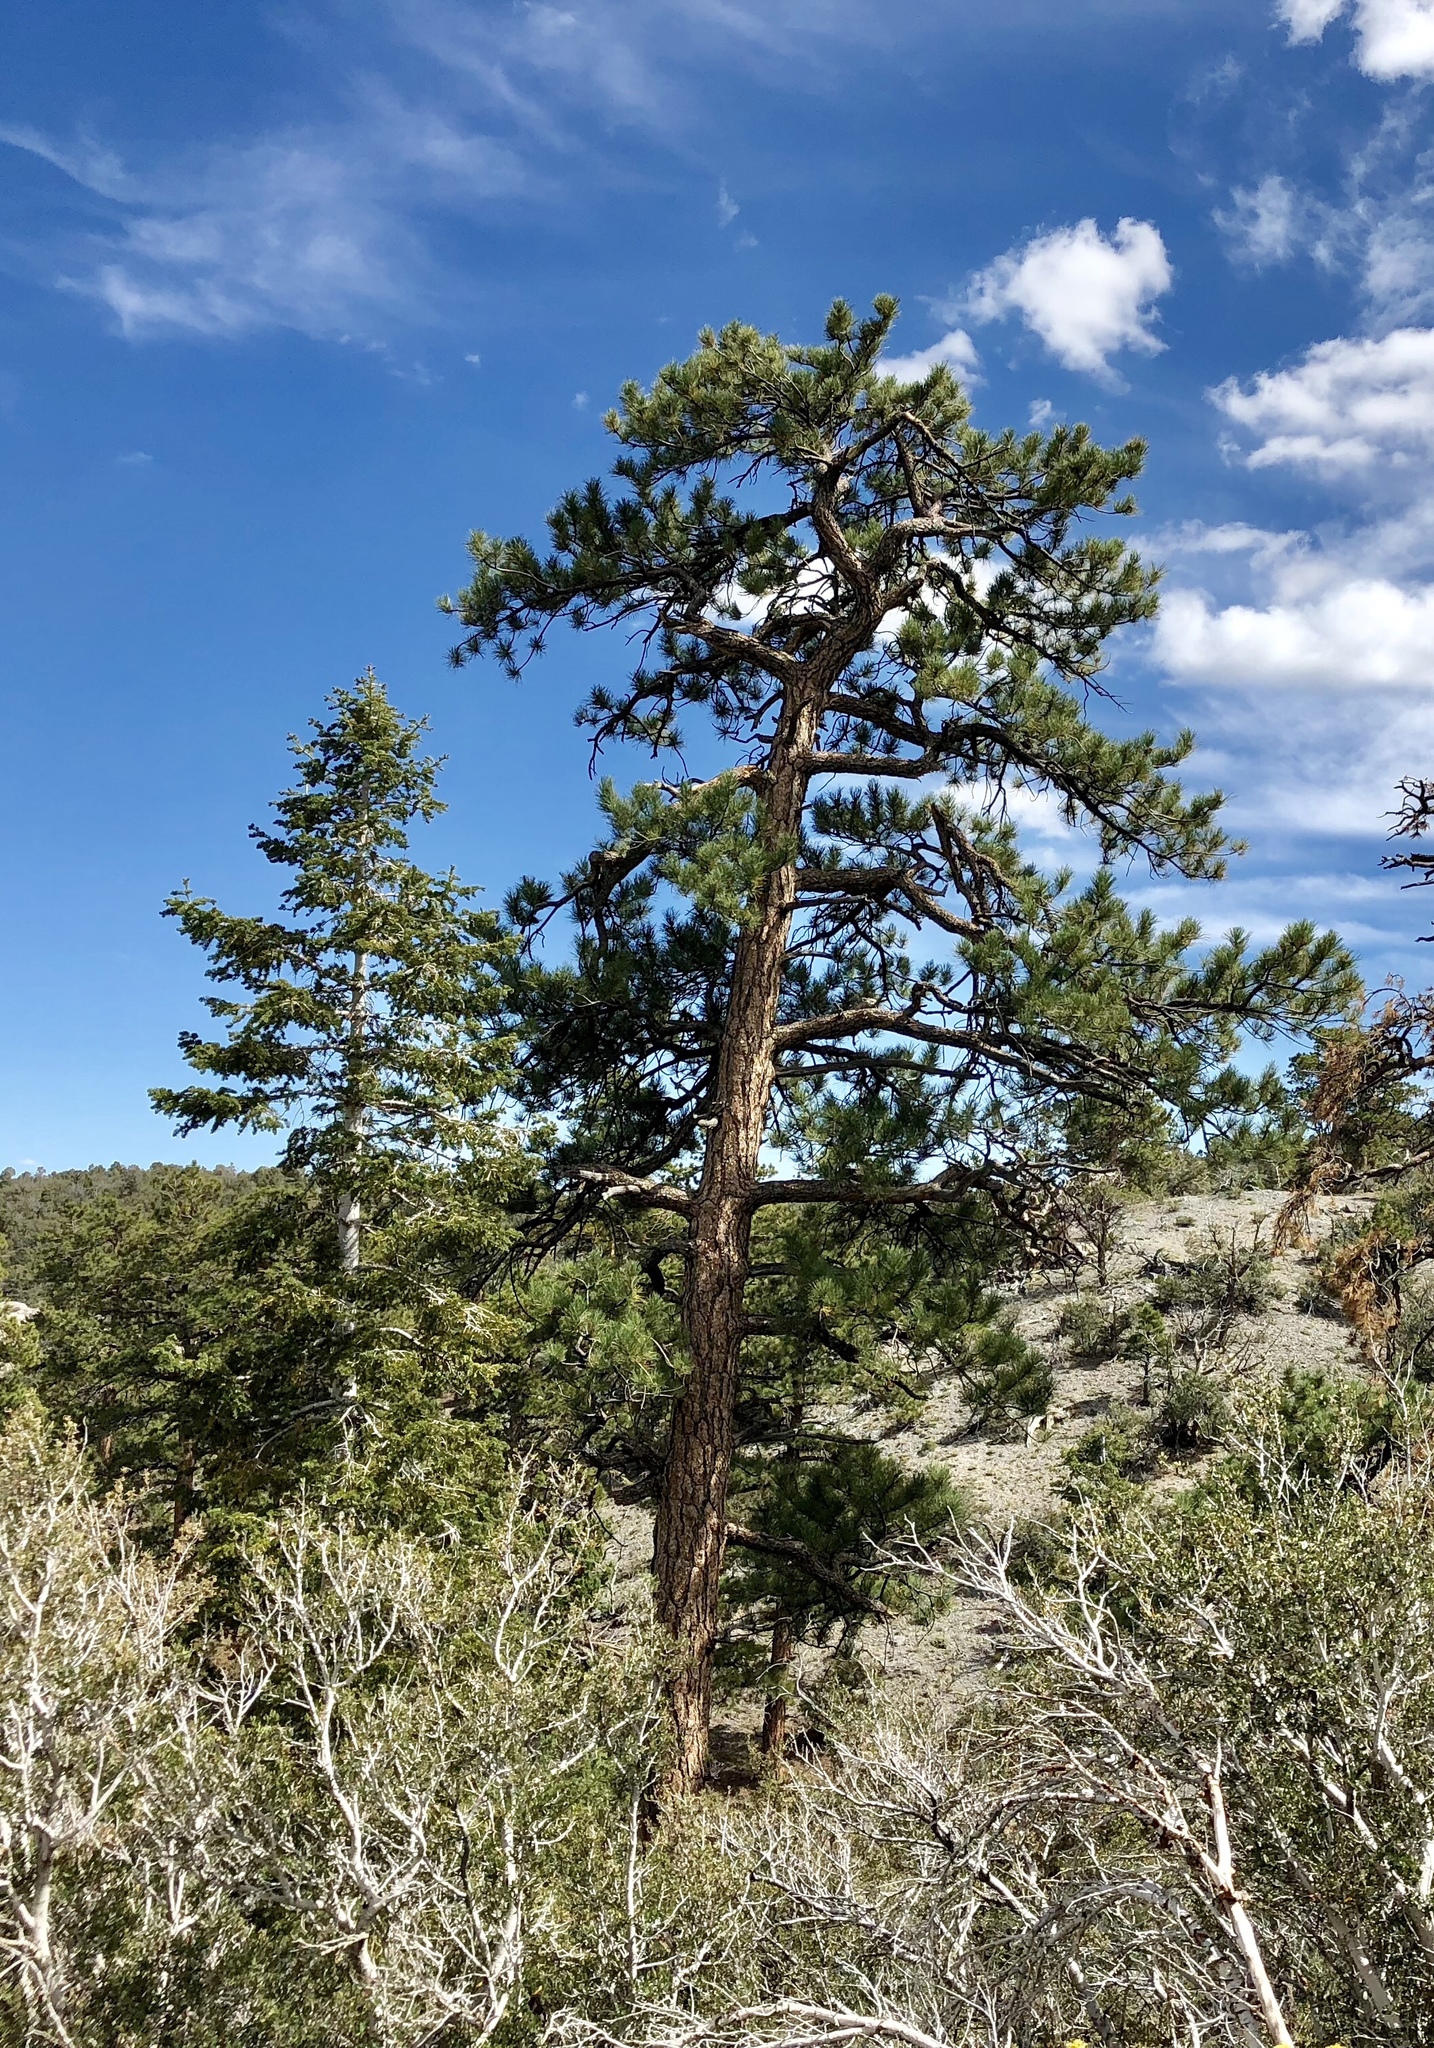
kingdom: Plantae
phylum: Tracheophyta
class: Pinopsida
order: Pinales
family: Pinaceae
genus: Pinus
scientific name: Pinus ponderosa
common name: Western yellow-pine
